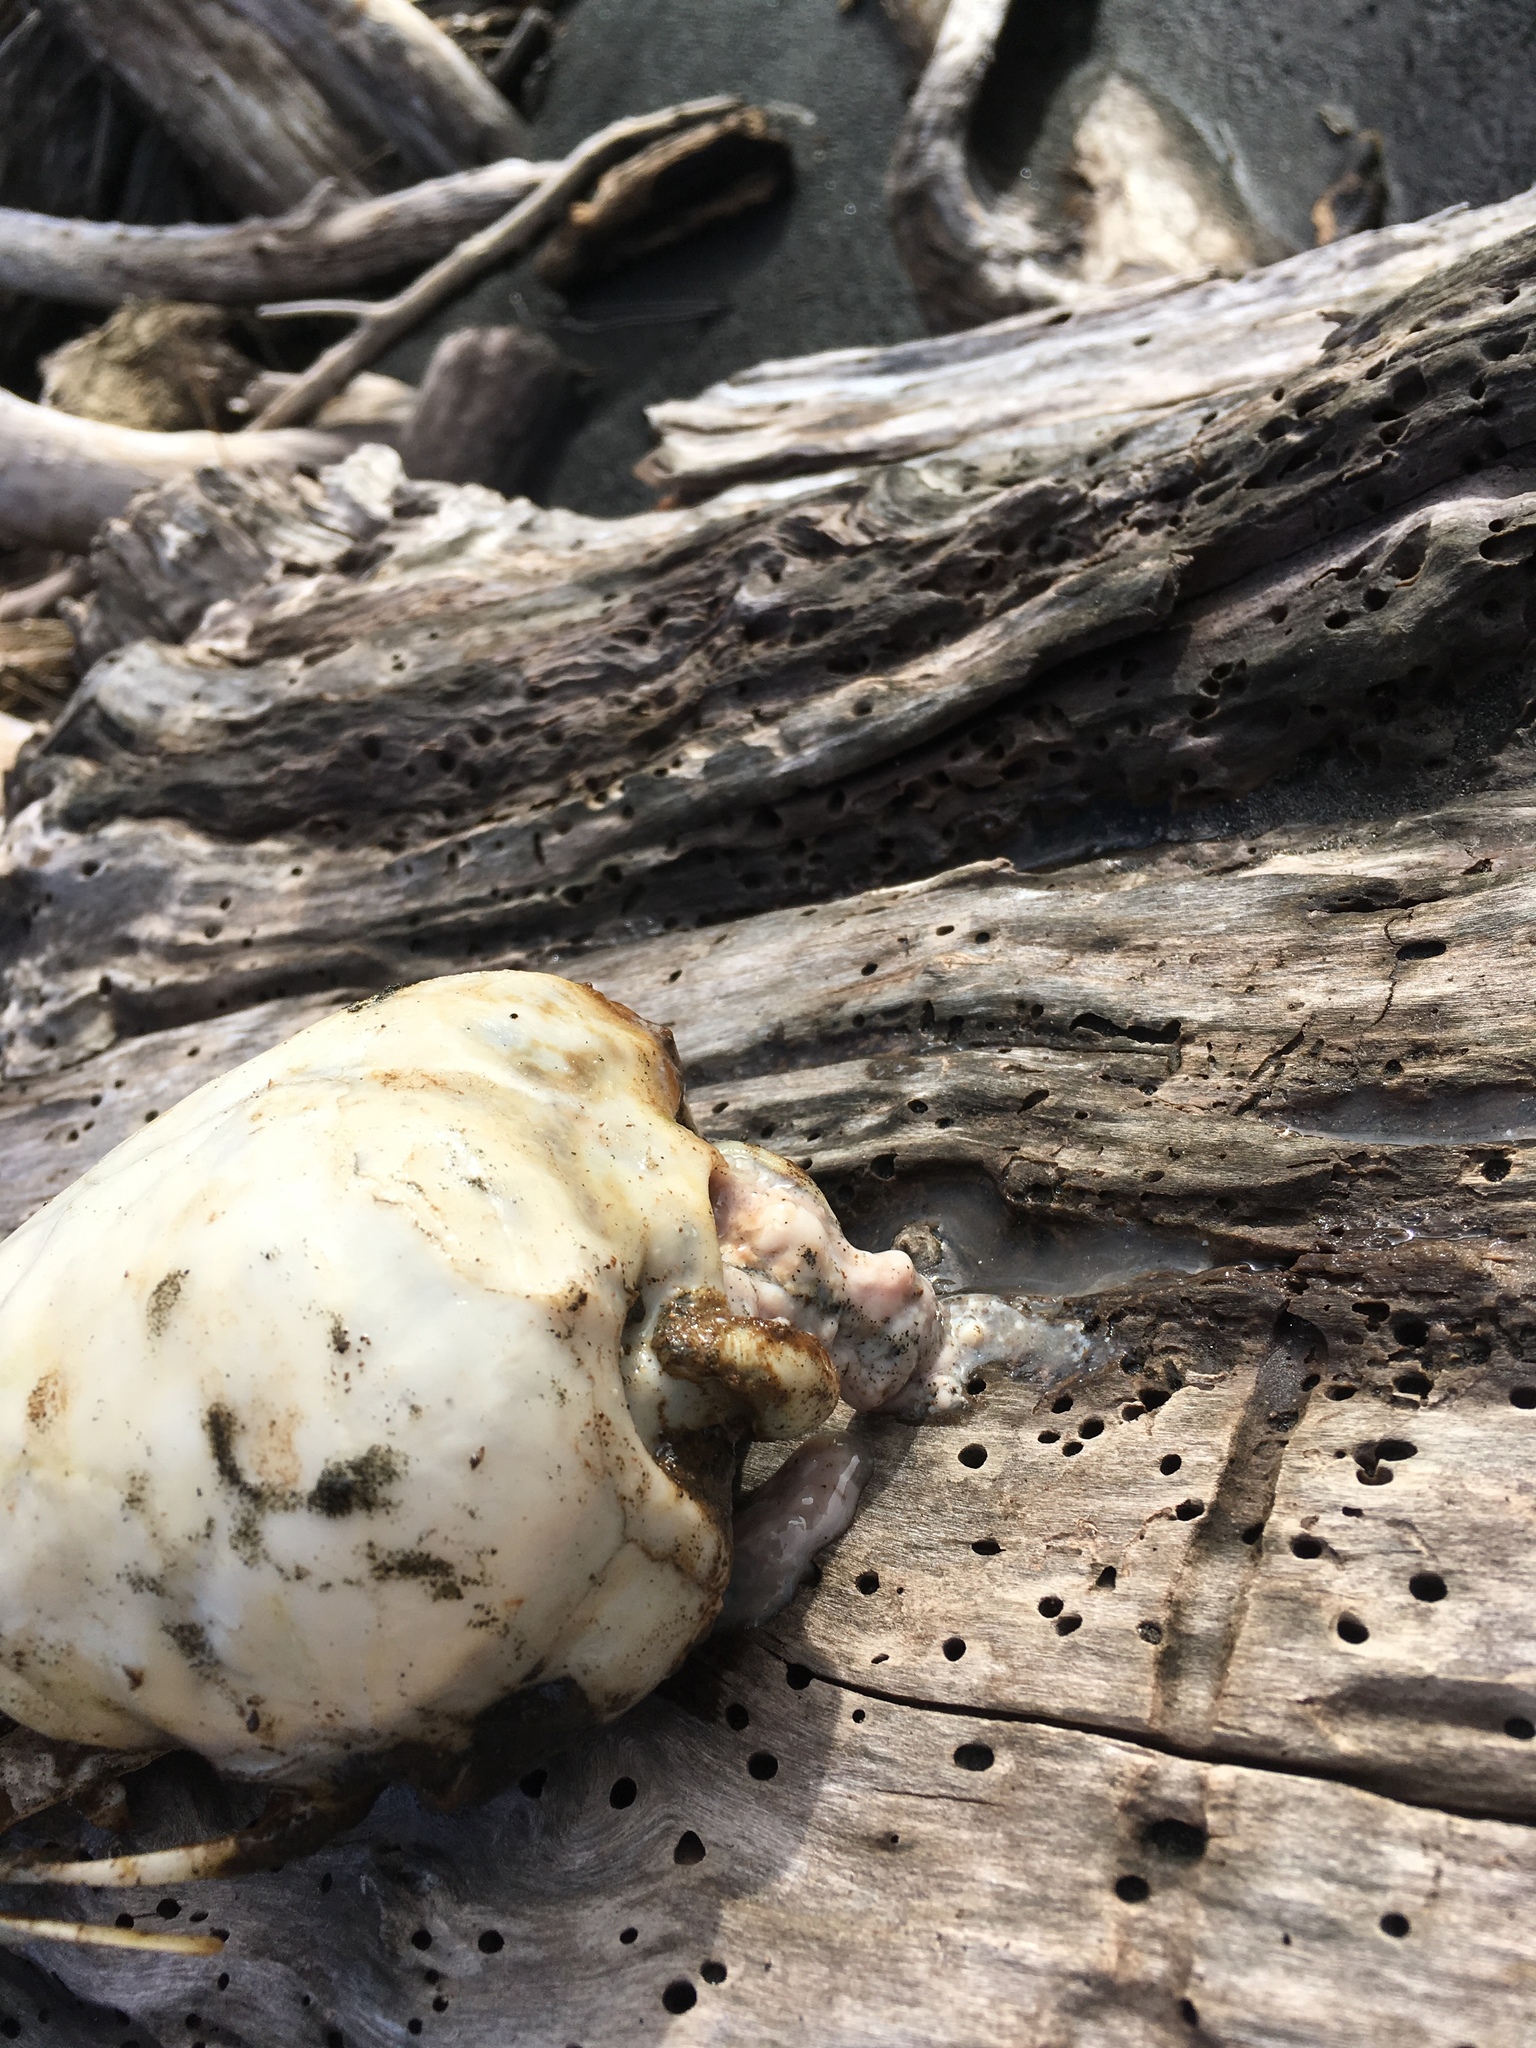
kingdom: Animalia
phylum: Chordata
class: Mammalia
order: Carnivora
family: Otariidae
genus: Arctocephalus
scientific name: Arctocephalus forsteri
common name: New zealand fur seal
